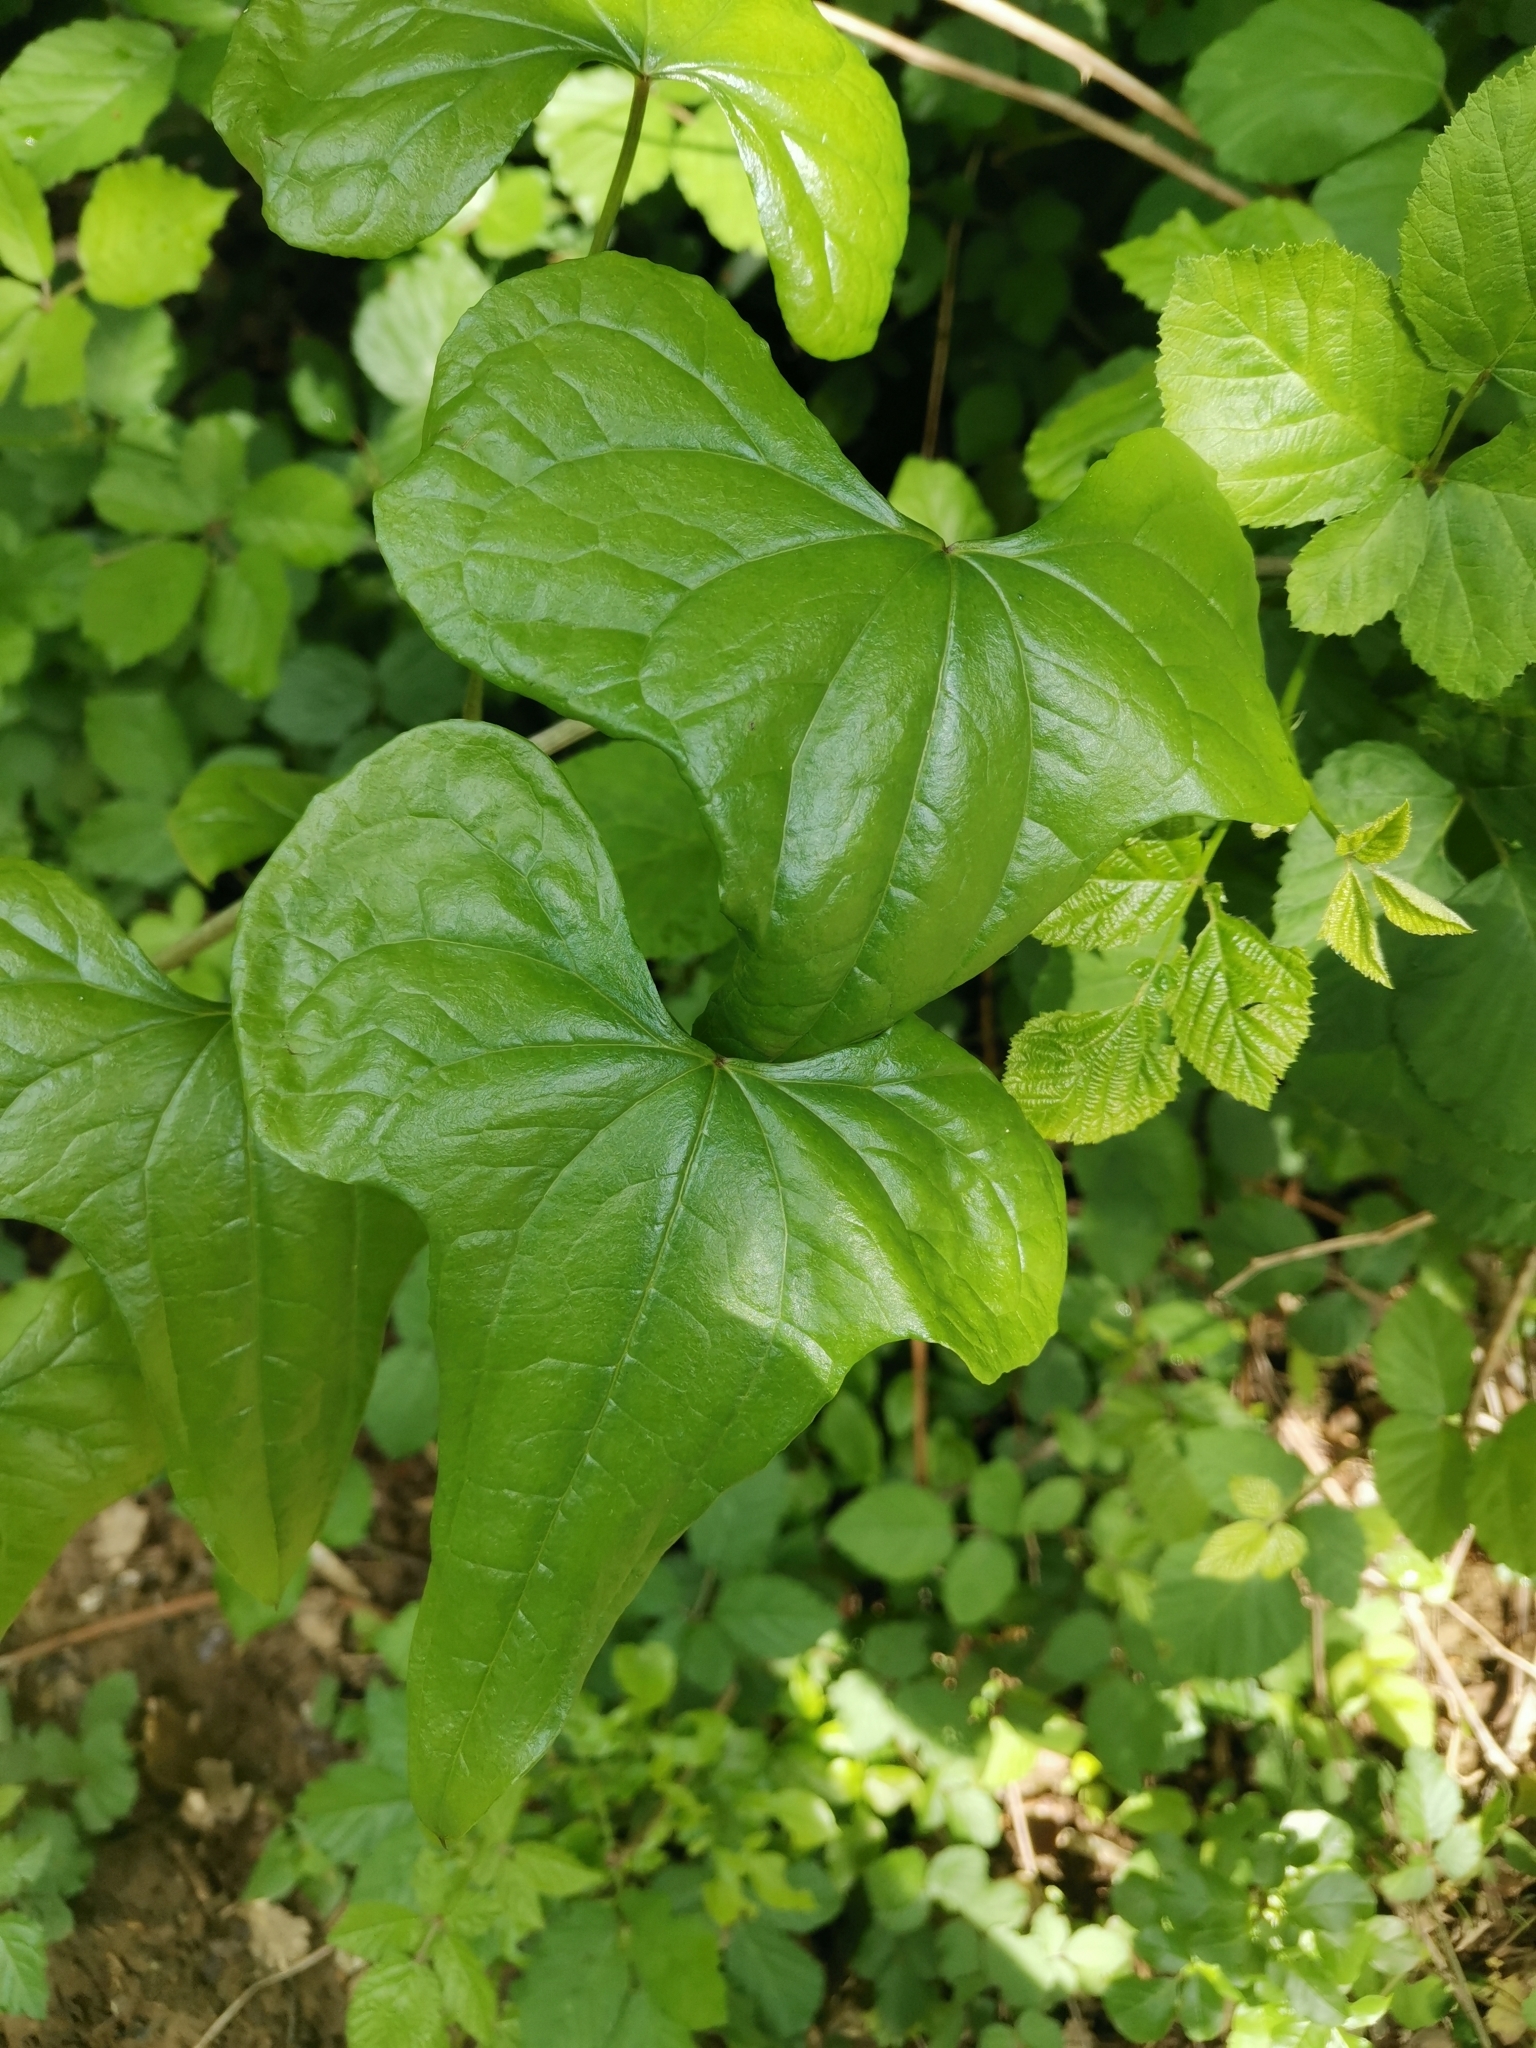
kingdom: Plantae
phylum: Tracheophyta
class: Liliopsida
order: Dioscoreales
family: Dioscoreaceae
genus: Dioscorea
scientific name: Dioscorea communis
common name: Black-bindweed
